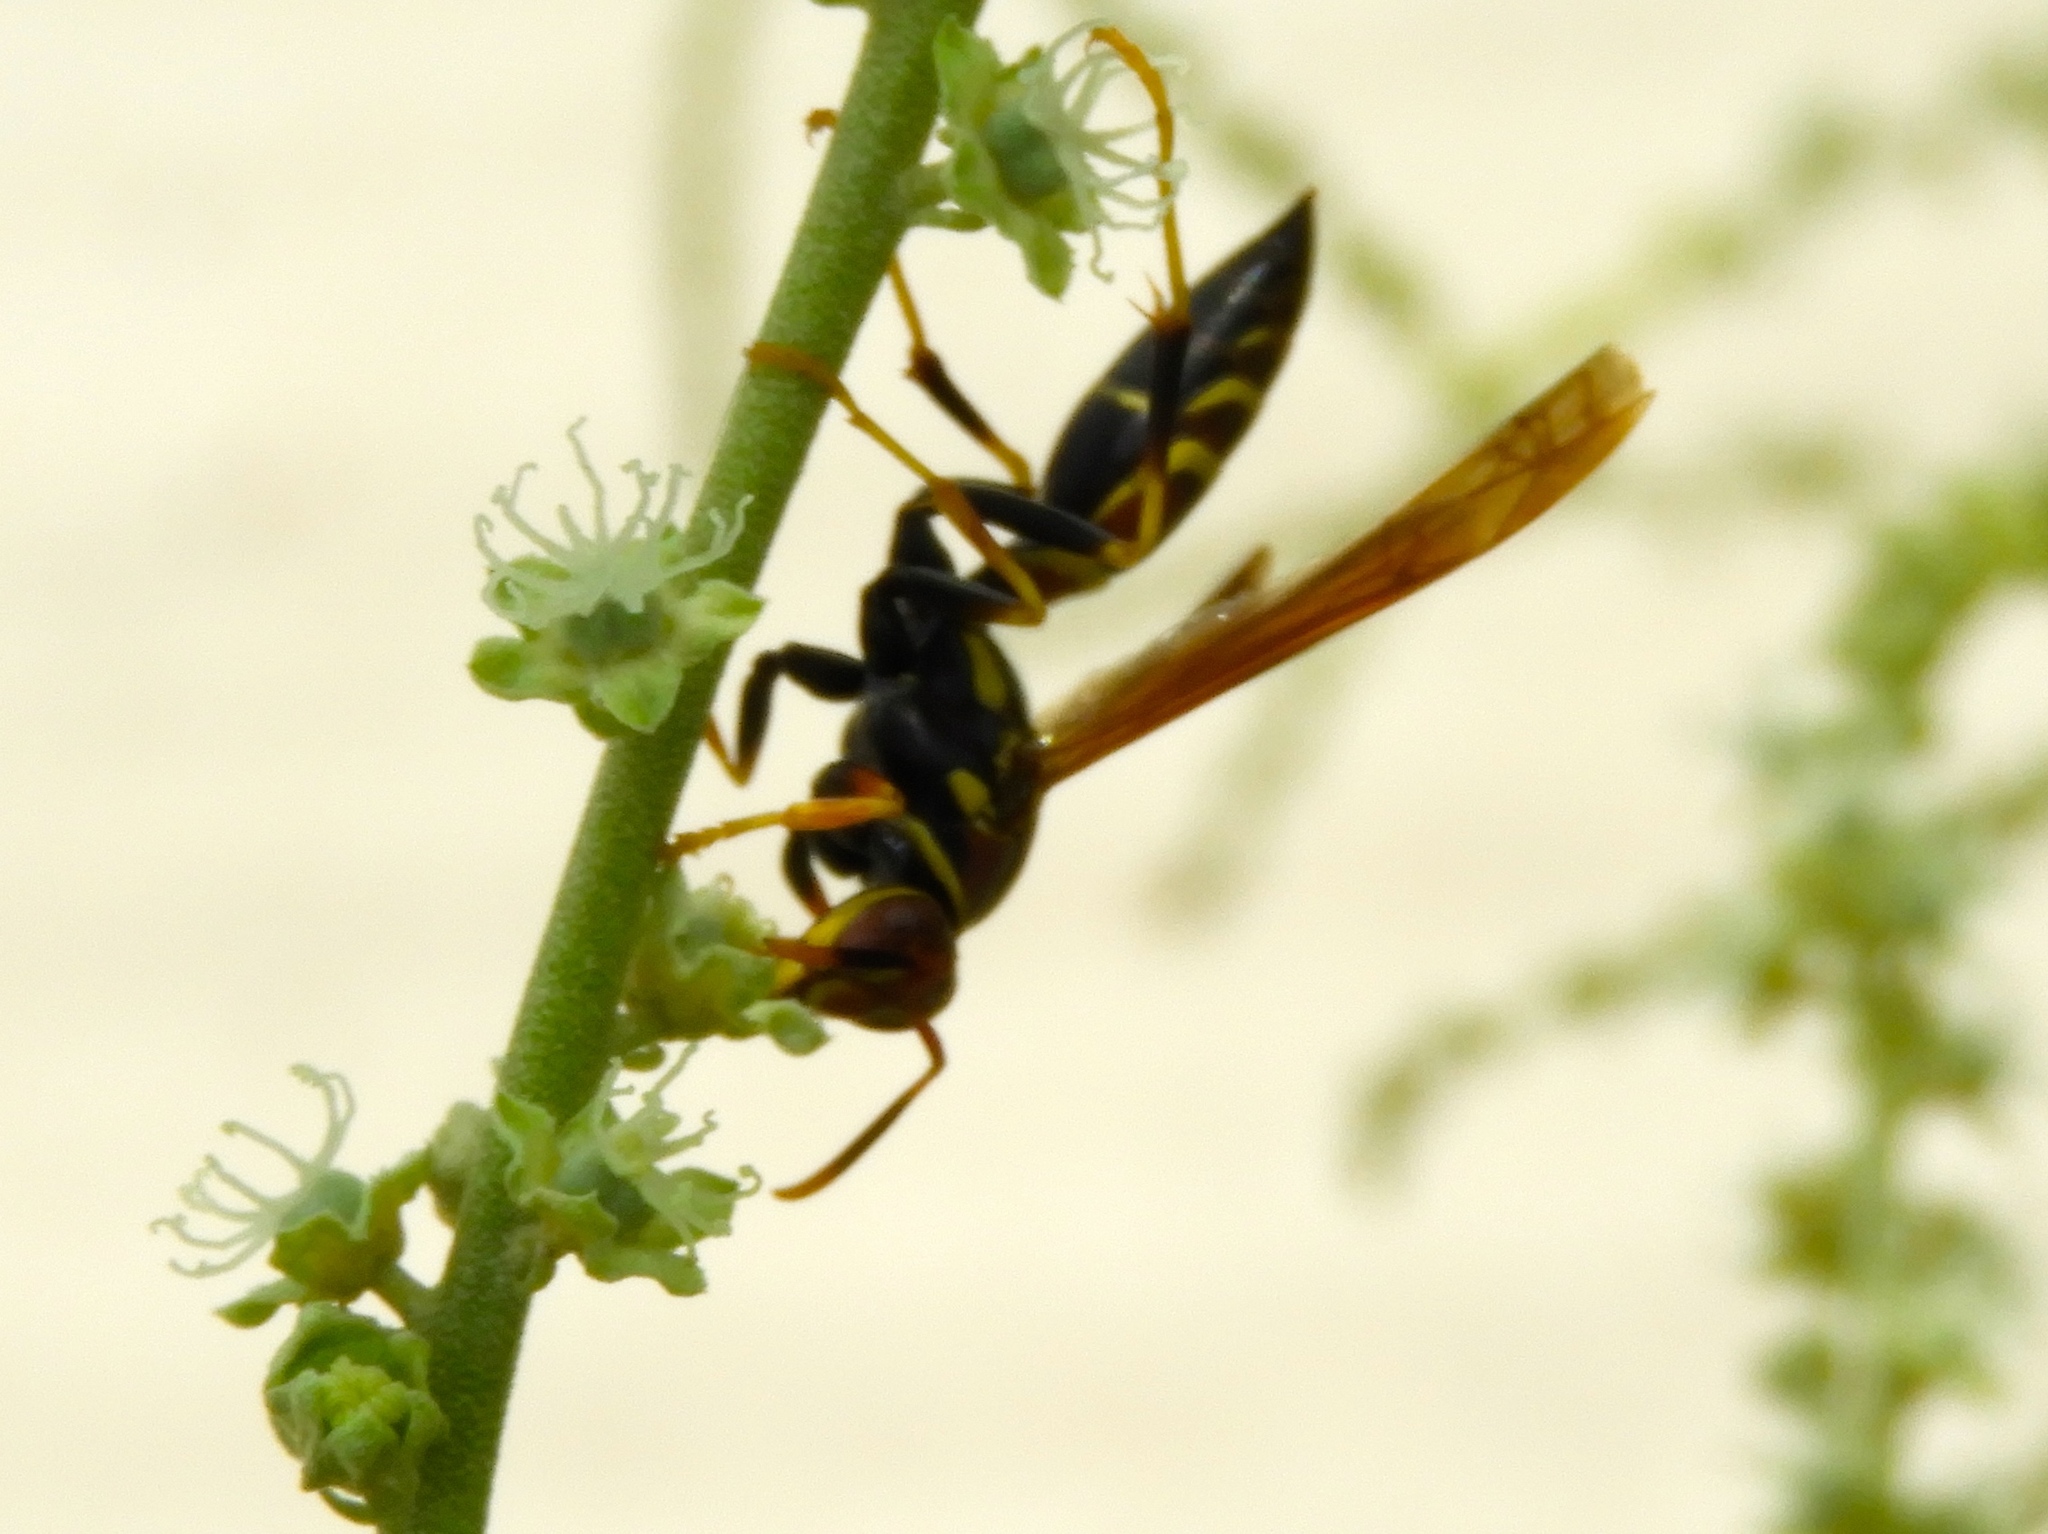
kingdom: Animalia
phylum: Arthropoda
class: Insecta
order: Hymenoptera
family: Eumenidae
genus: Polistes
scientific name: Polistes instabilis
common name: Unstable paper wasp
